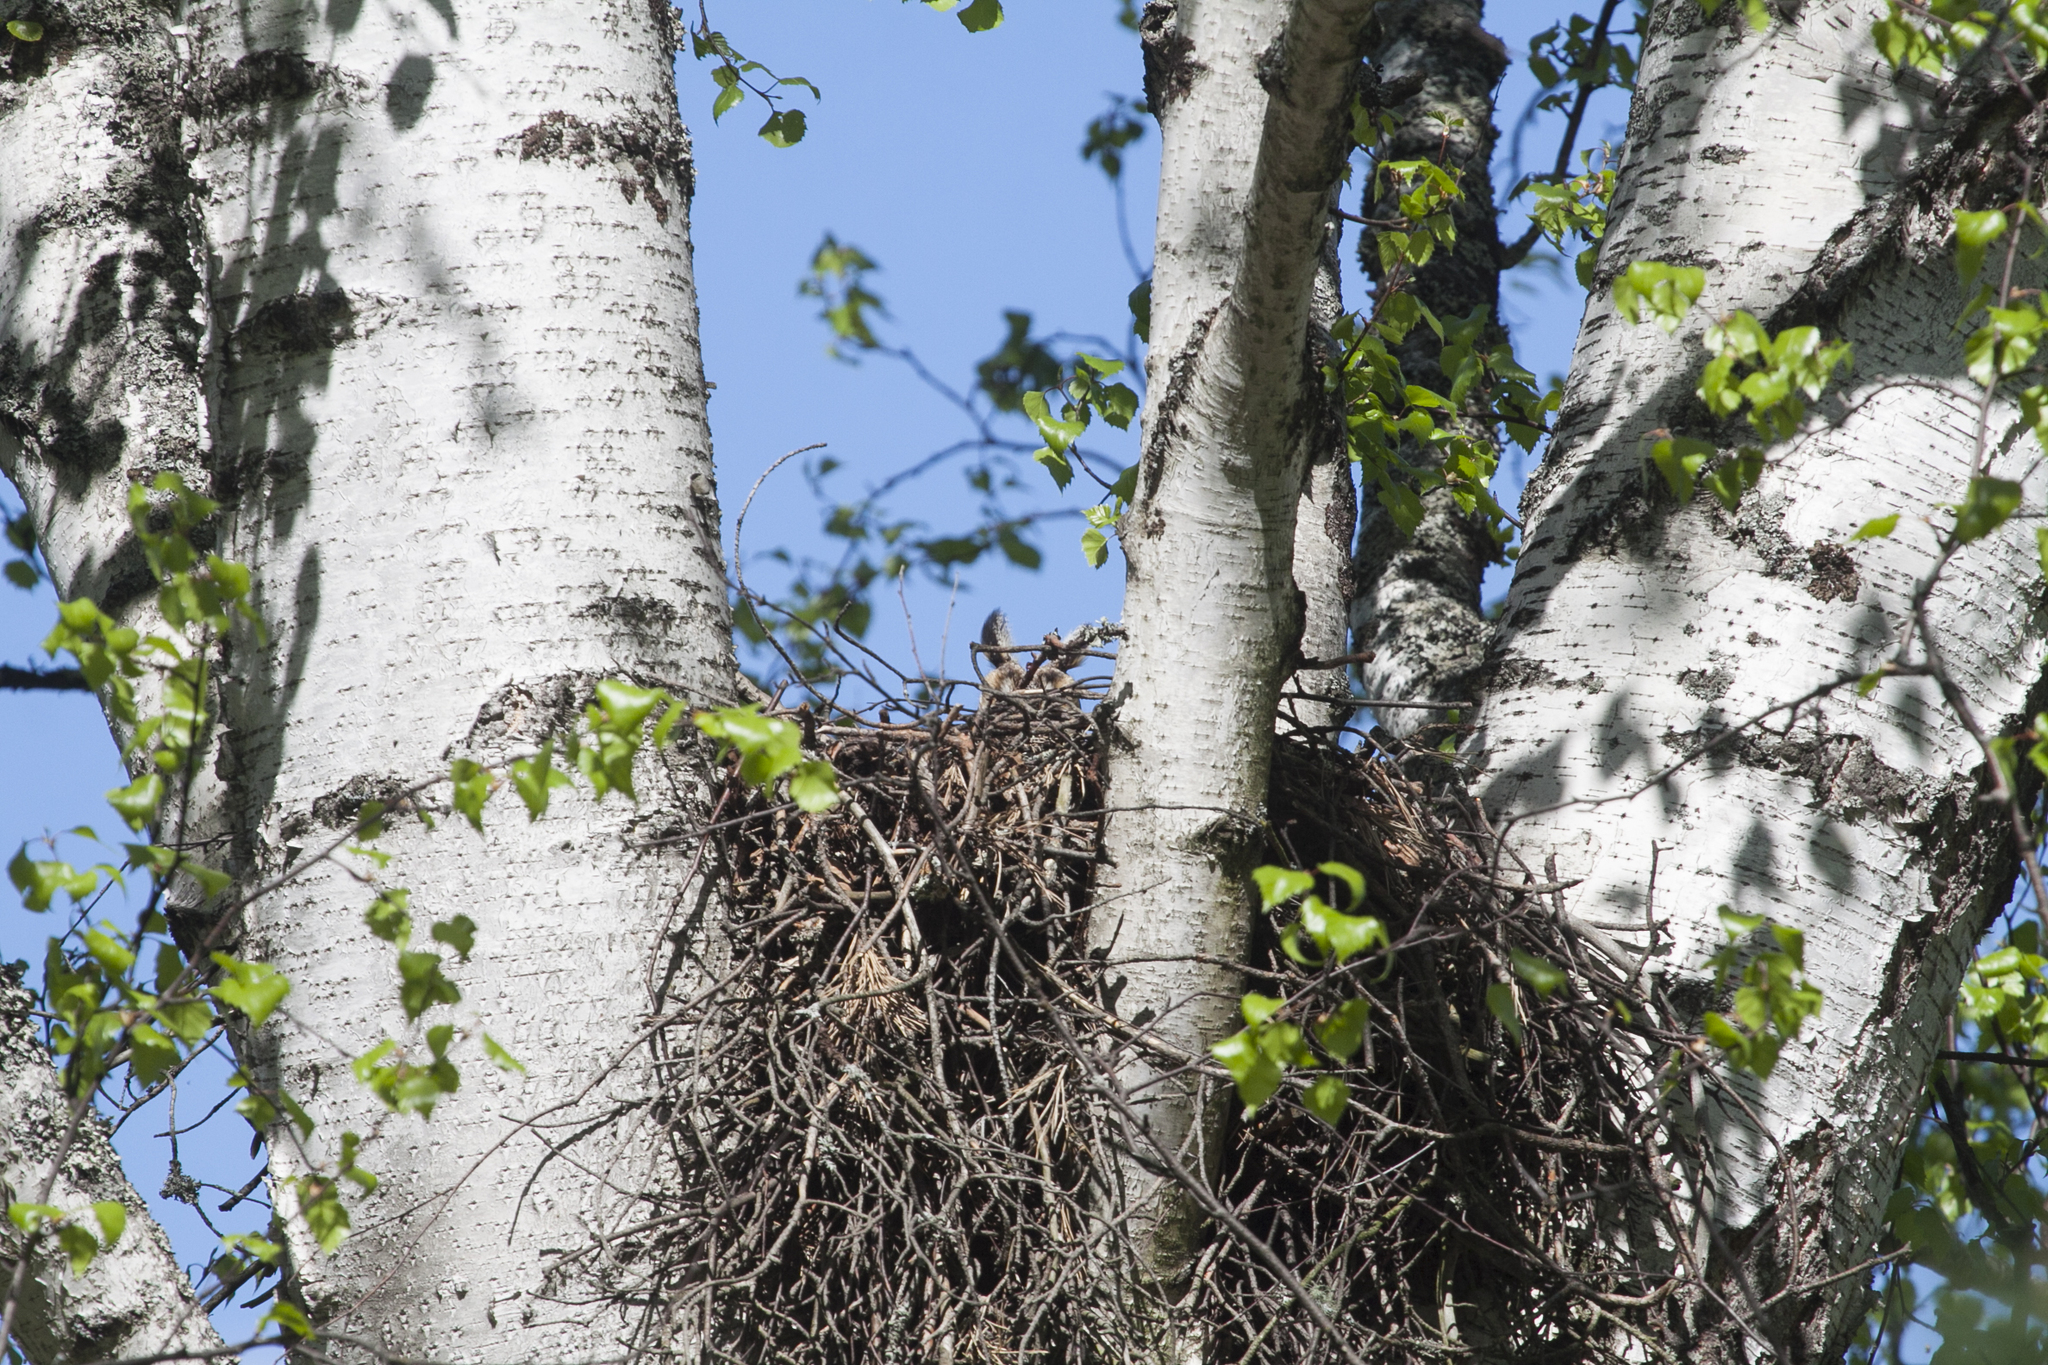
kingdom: Animalia
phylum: Chordata
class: Aves
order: Strigiformes
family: Strigidae
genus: Asio
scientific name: Asio otus
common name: Long-eared owl
